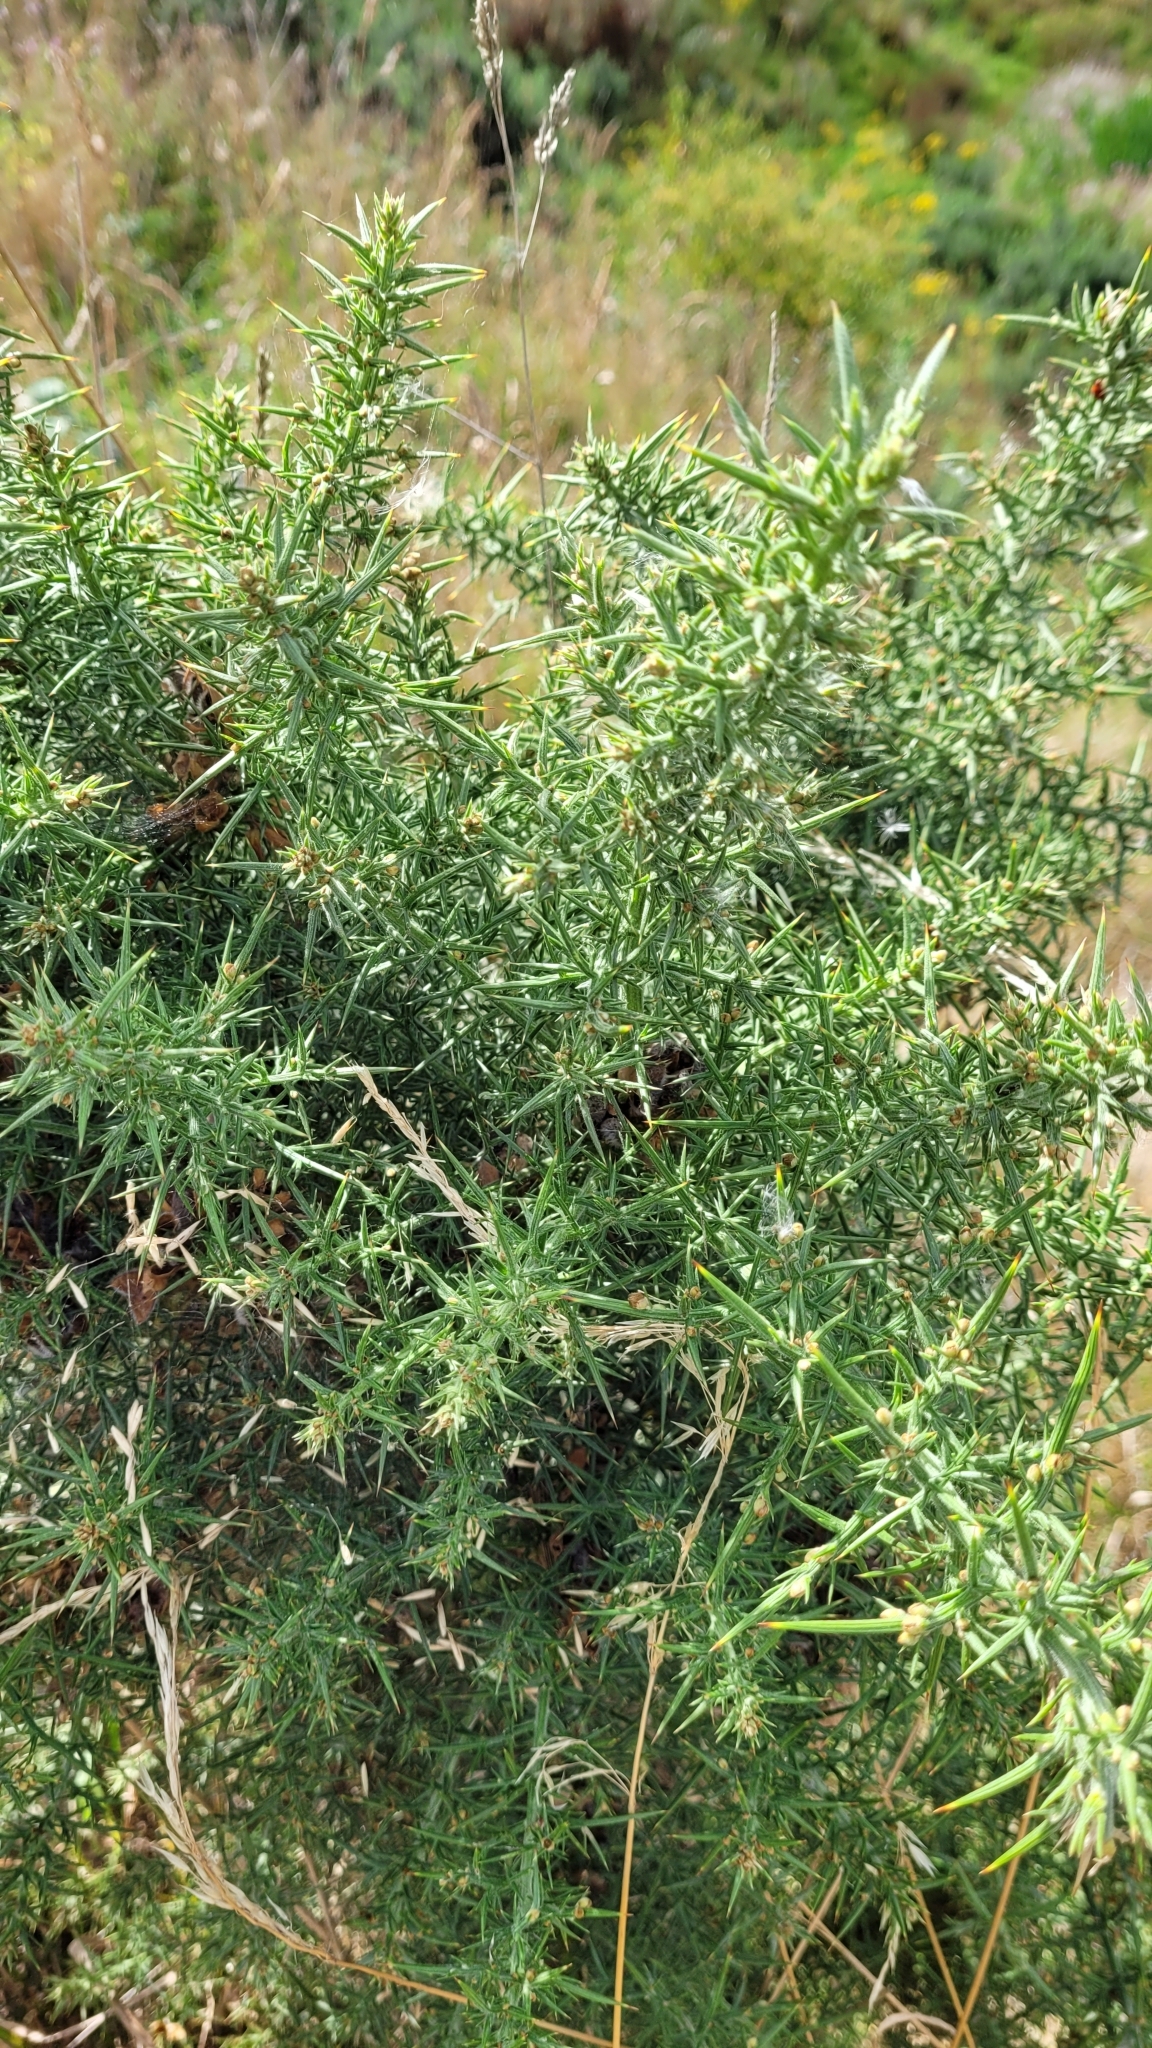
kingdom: Plantae
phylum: Tracheophyta
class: Magnoliopsida
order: Fabales
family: Fabaceae
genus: Ulex
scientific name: Ulex europaeus
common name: Common gorse
